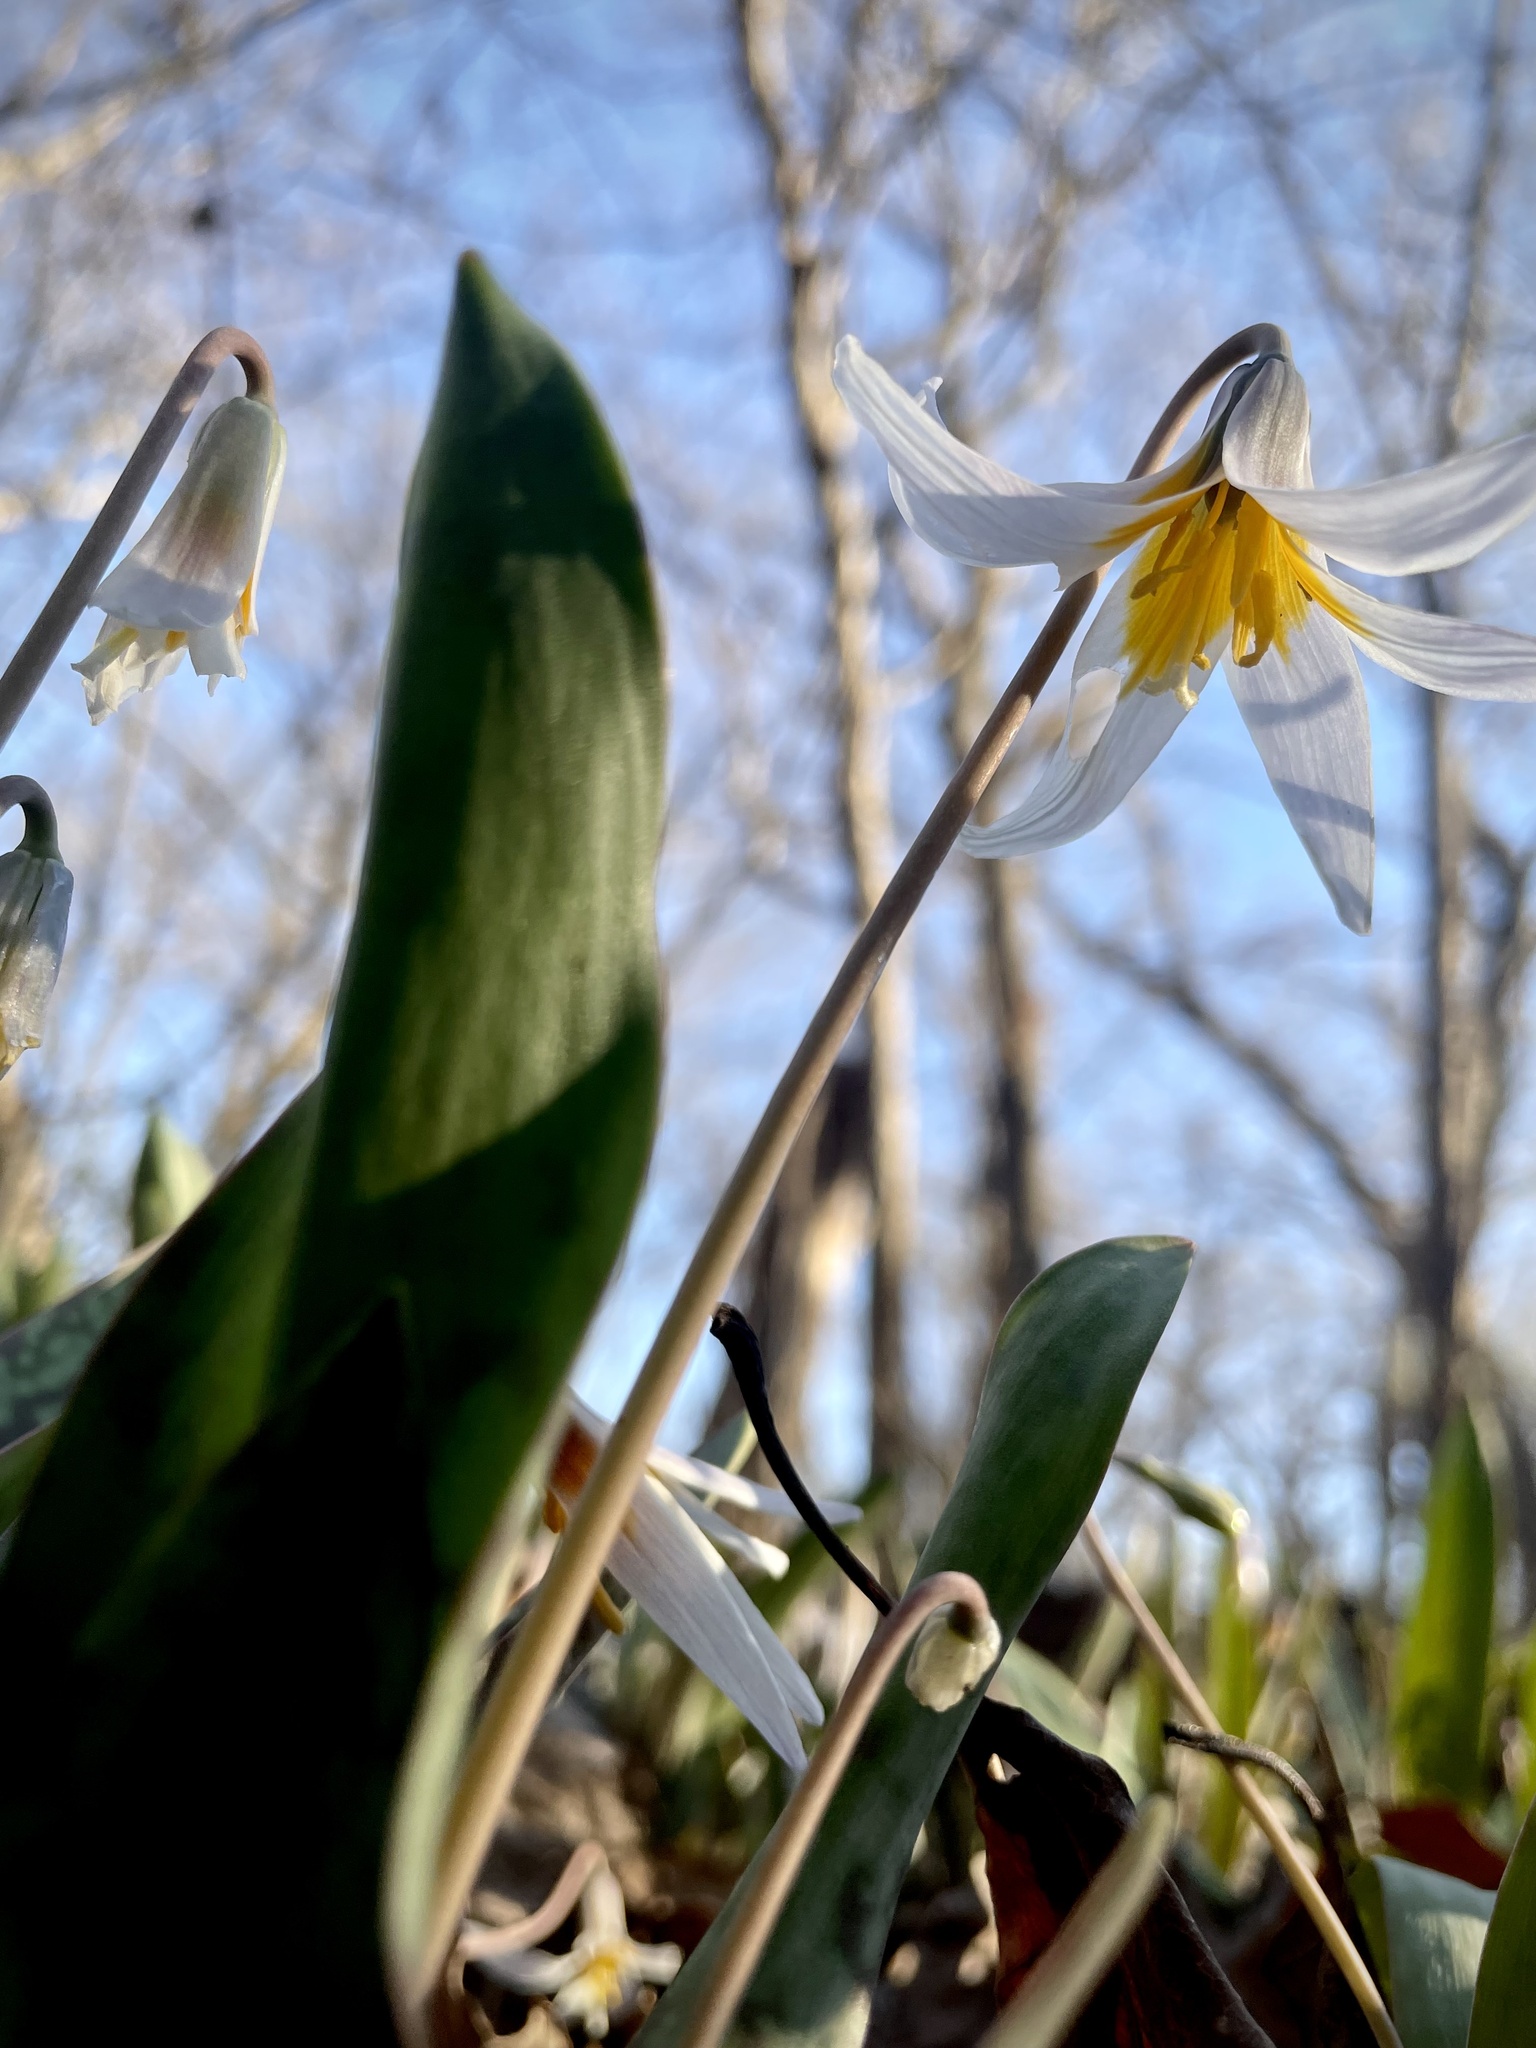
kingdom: Plantae
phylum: Tracheophyta
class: Liliopsida
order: Liliales
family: Liliaceae
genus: Erythronium
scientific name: Erythronium albidum
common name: White trout-lily
